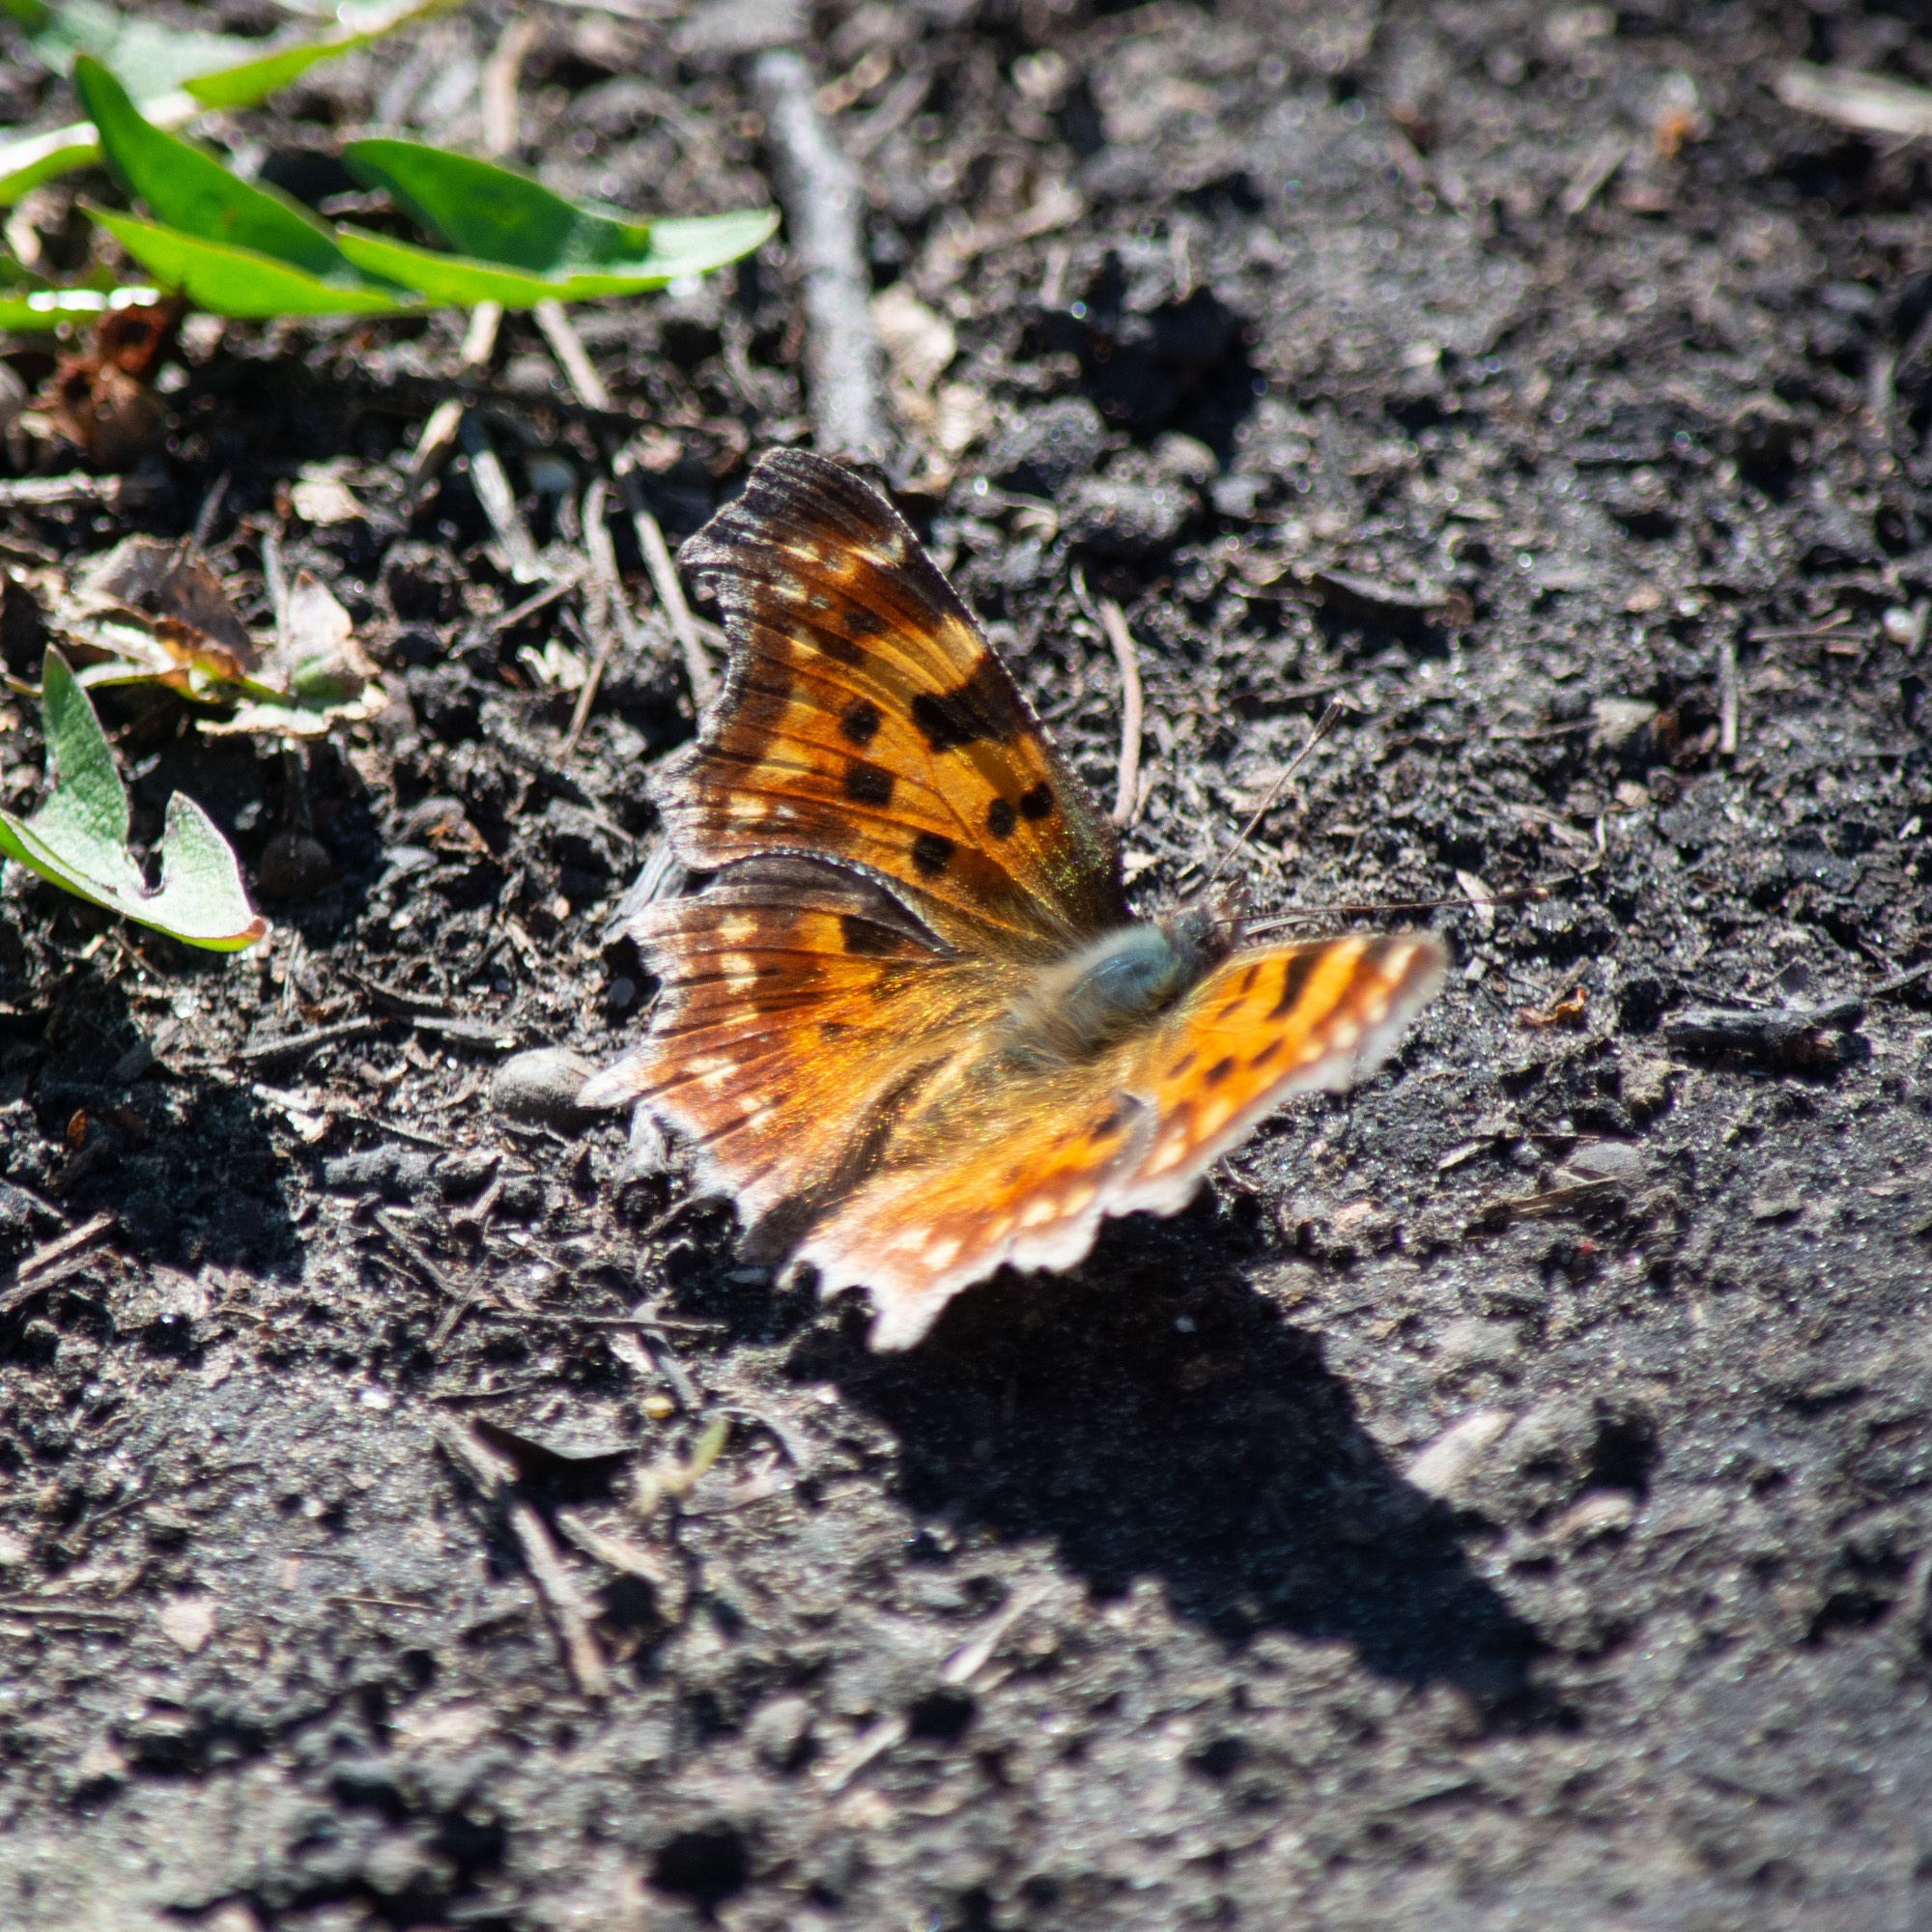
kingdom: Animalia
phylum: Arthropoda
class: Insecta
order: Lepidoptera
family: Nymphalidae
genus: Polygonia
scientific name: Polygonia c-album
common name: Comma
